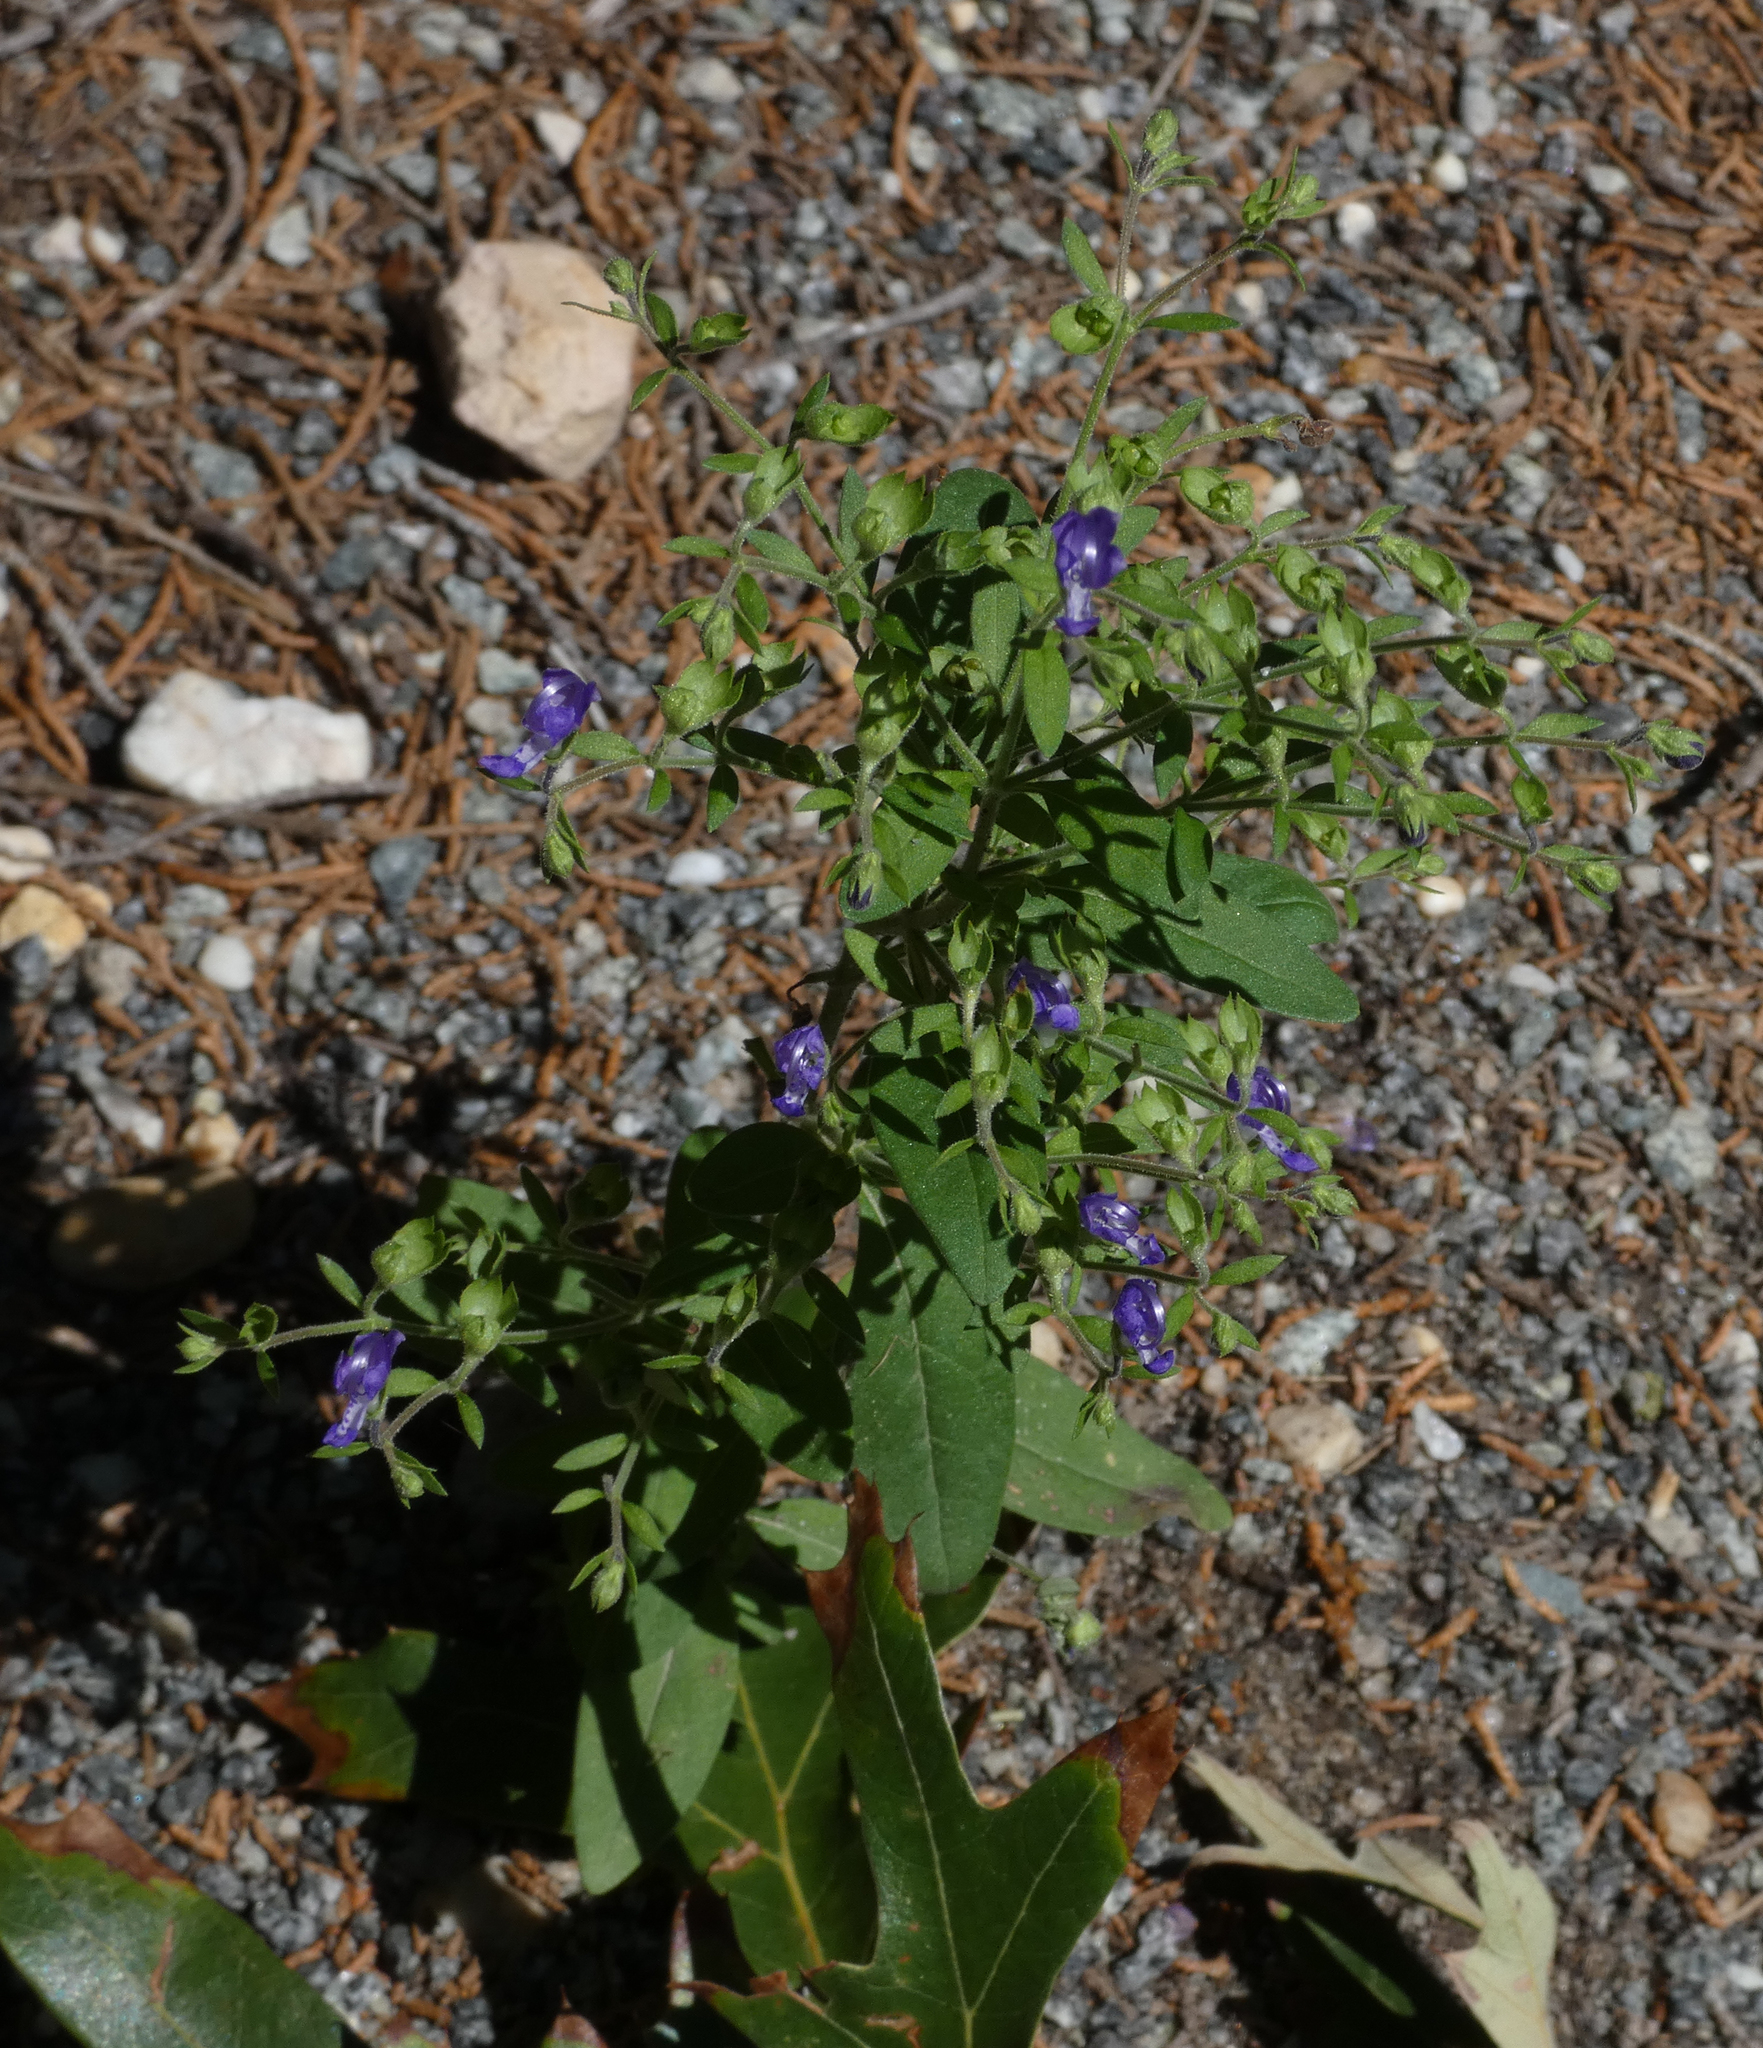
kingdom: Plantae
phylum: Tracheophyta
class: Magnoliopsida
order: Lamiales
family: Lamiaceae
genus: Trichostema
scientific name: Trichostema dichotomum
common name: Bastard pennyroyal
